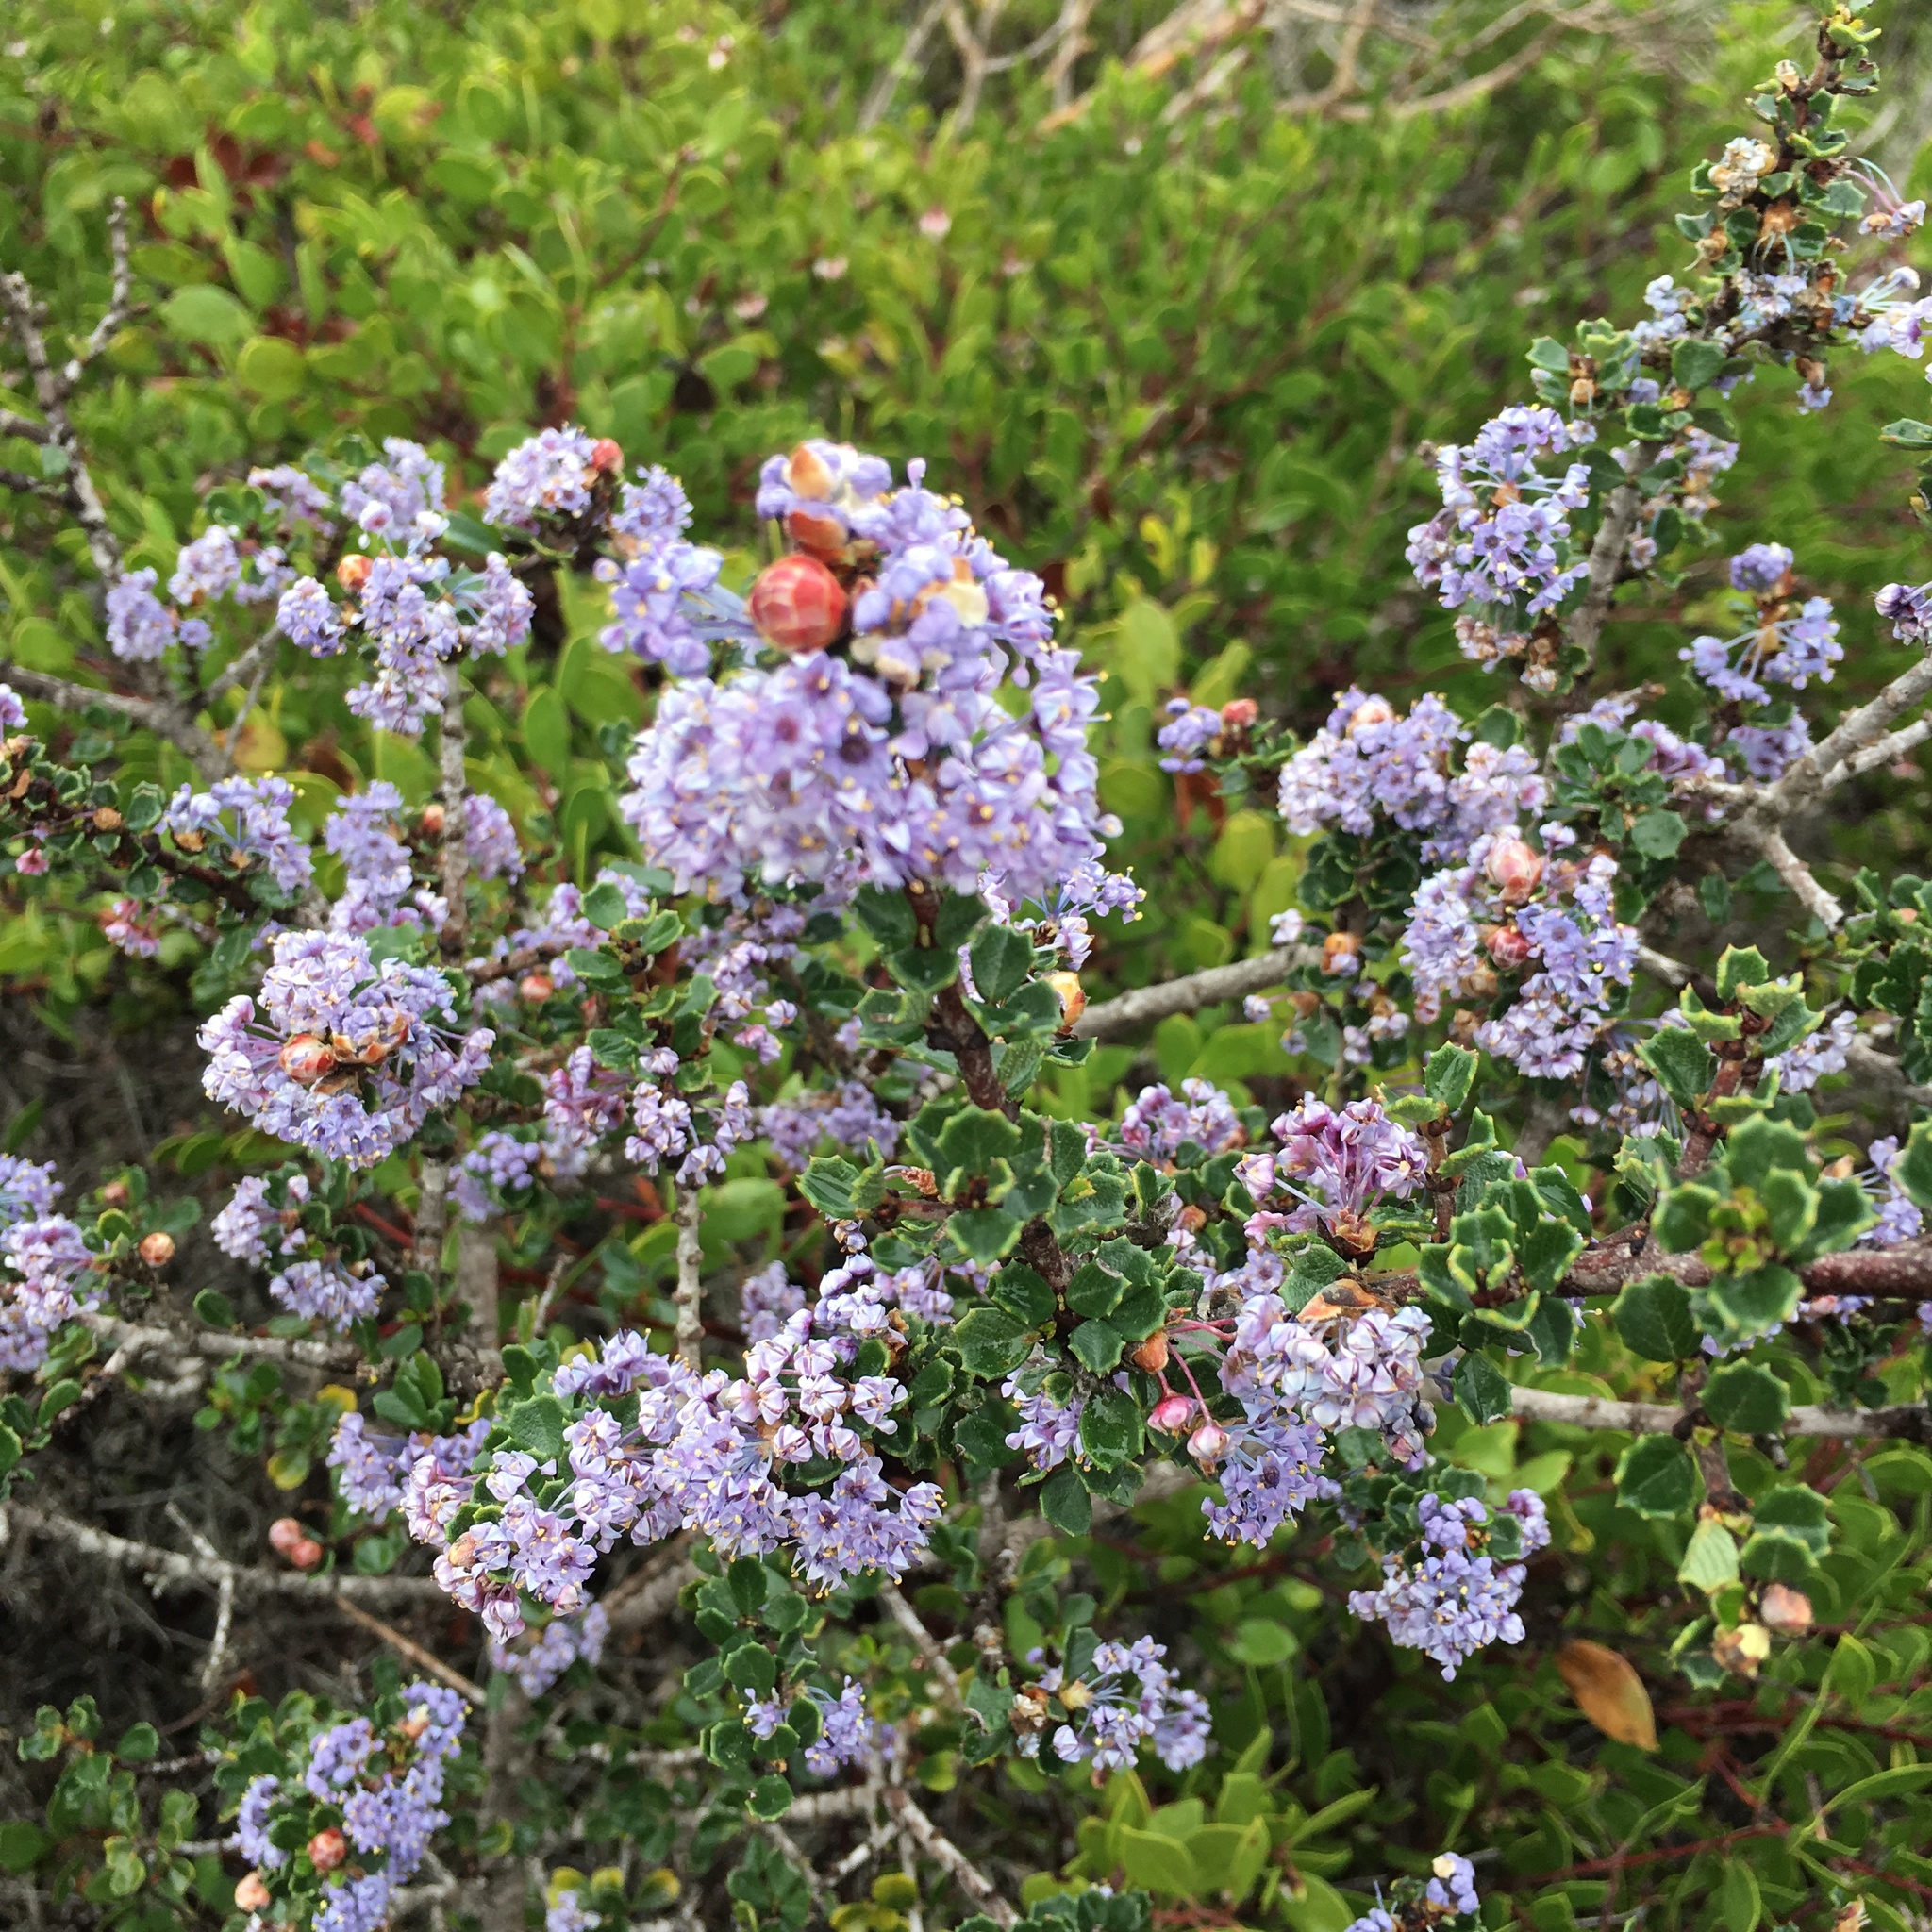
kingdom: Plantae
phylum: Tracheophyta
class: Magnoliopsida
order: Rosales
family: Rhamnaceae
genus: Ceanothus
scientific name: Ceanothus cuneatus
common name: Cuneate ceanothus
